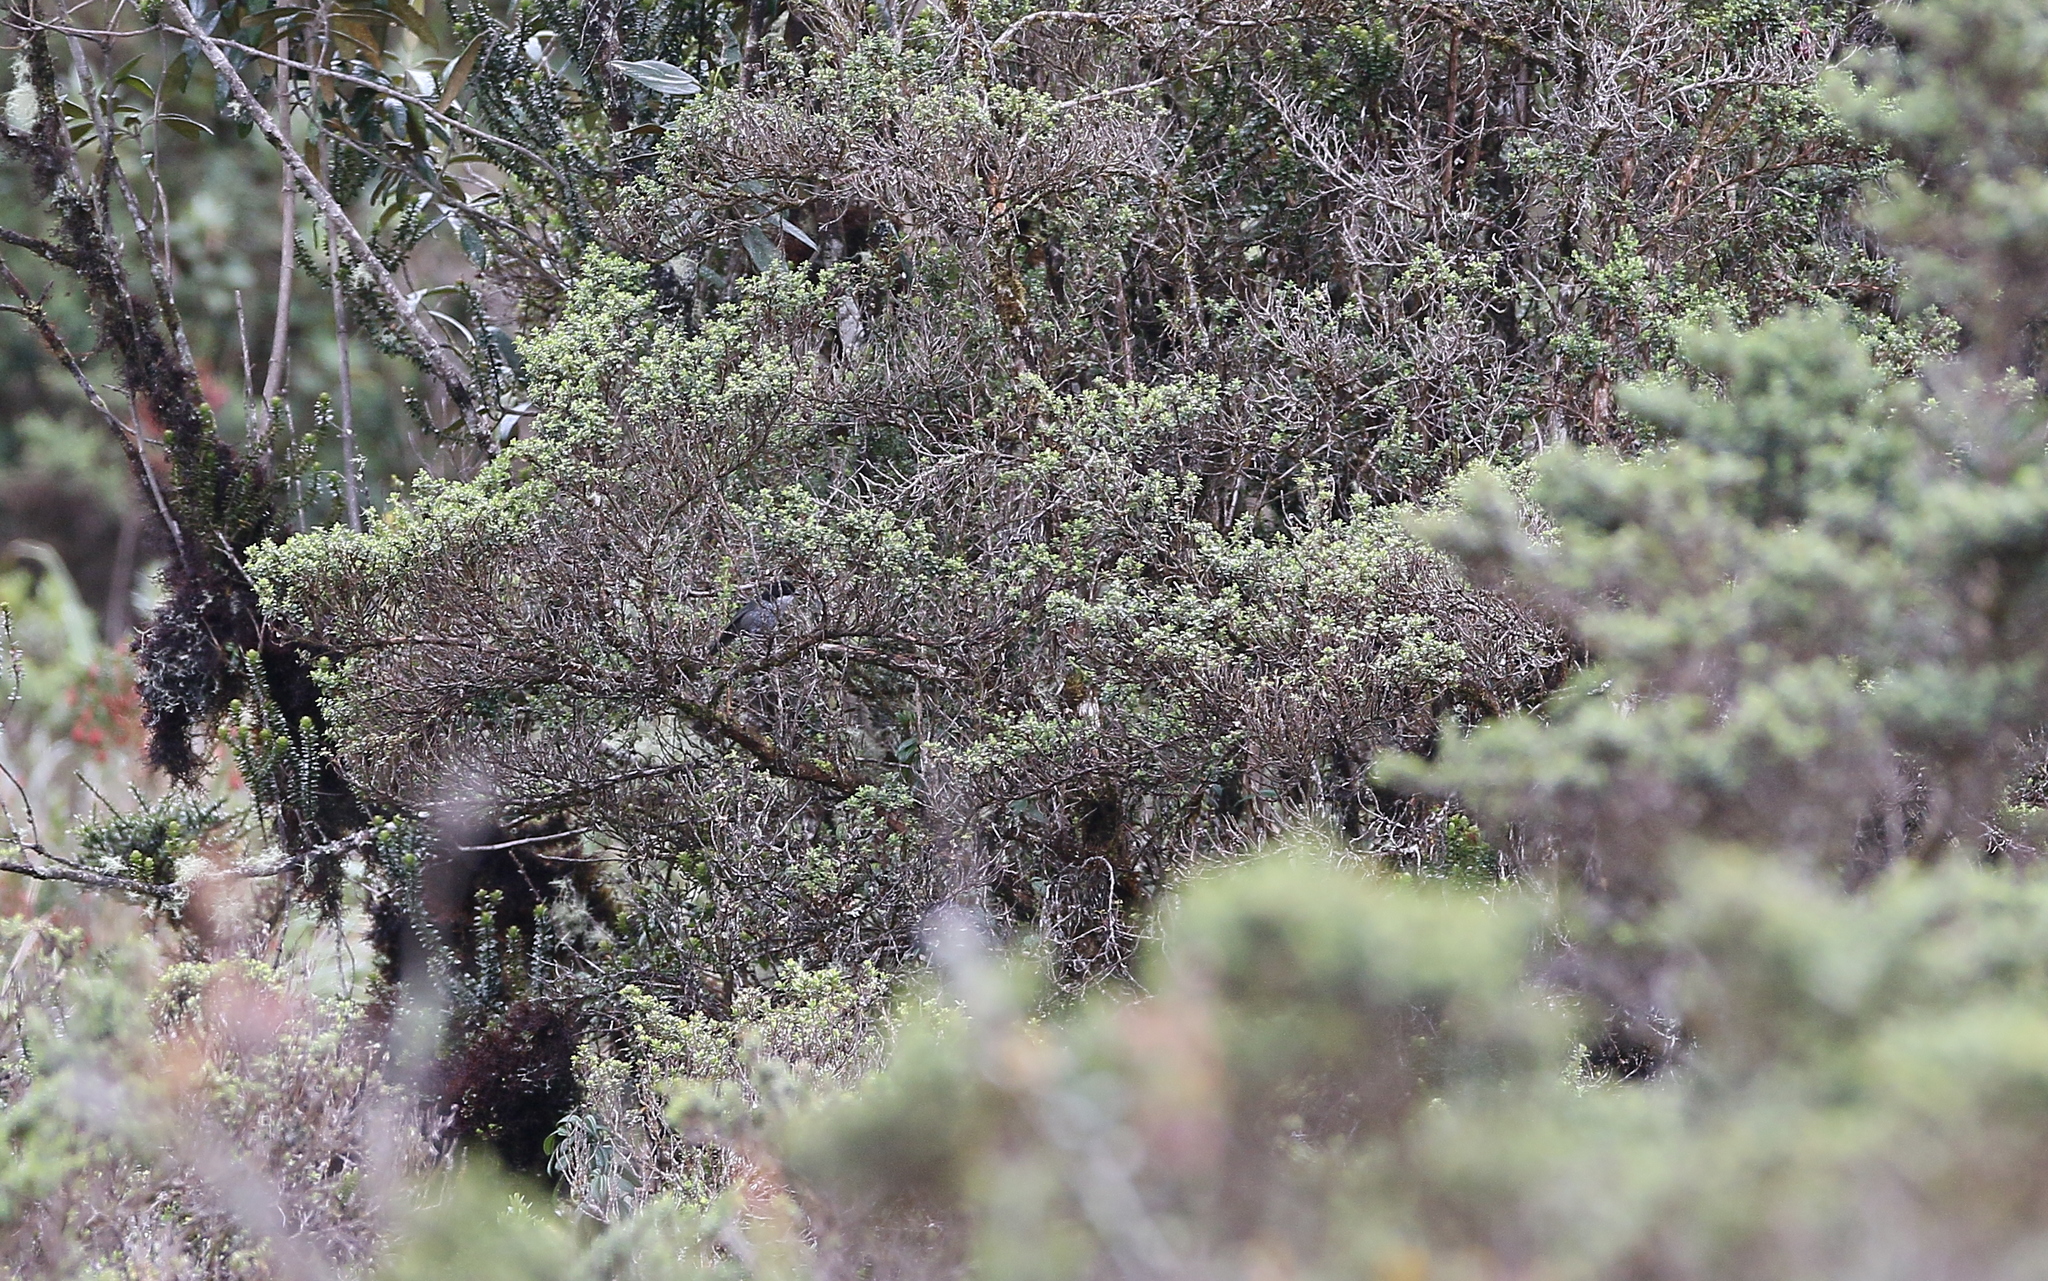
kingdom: Animalia
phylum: Chordata
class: Aves
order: Passeriformes
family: Thraupidae
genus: Urothraupis
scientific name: Urothraupis stolzmanni
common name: Black-backed bush tanager
